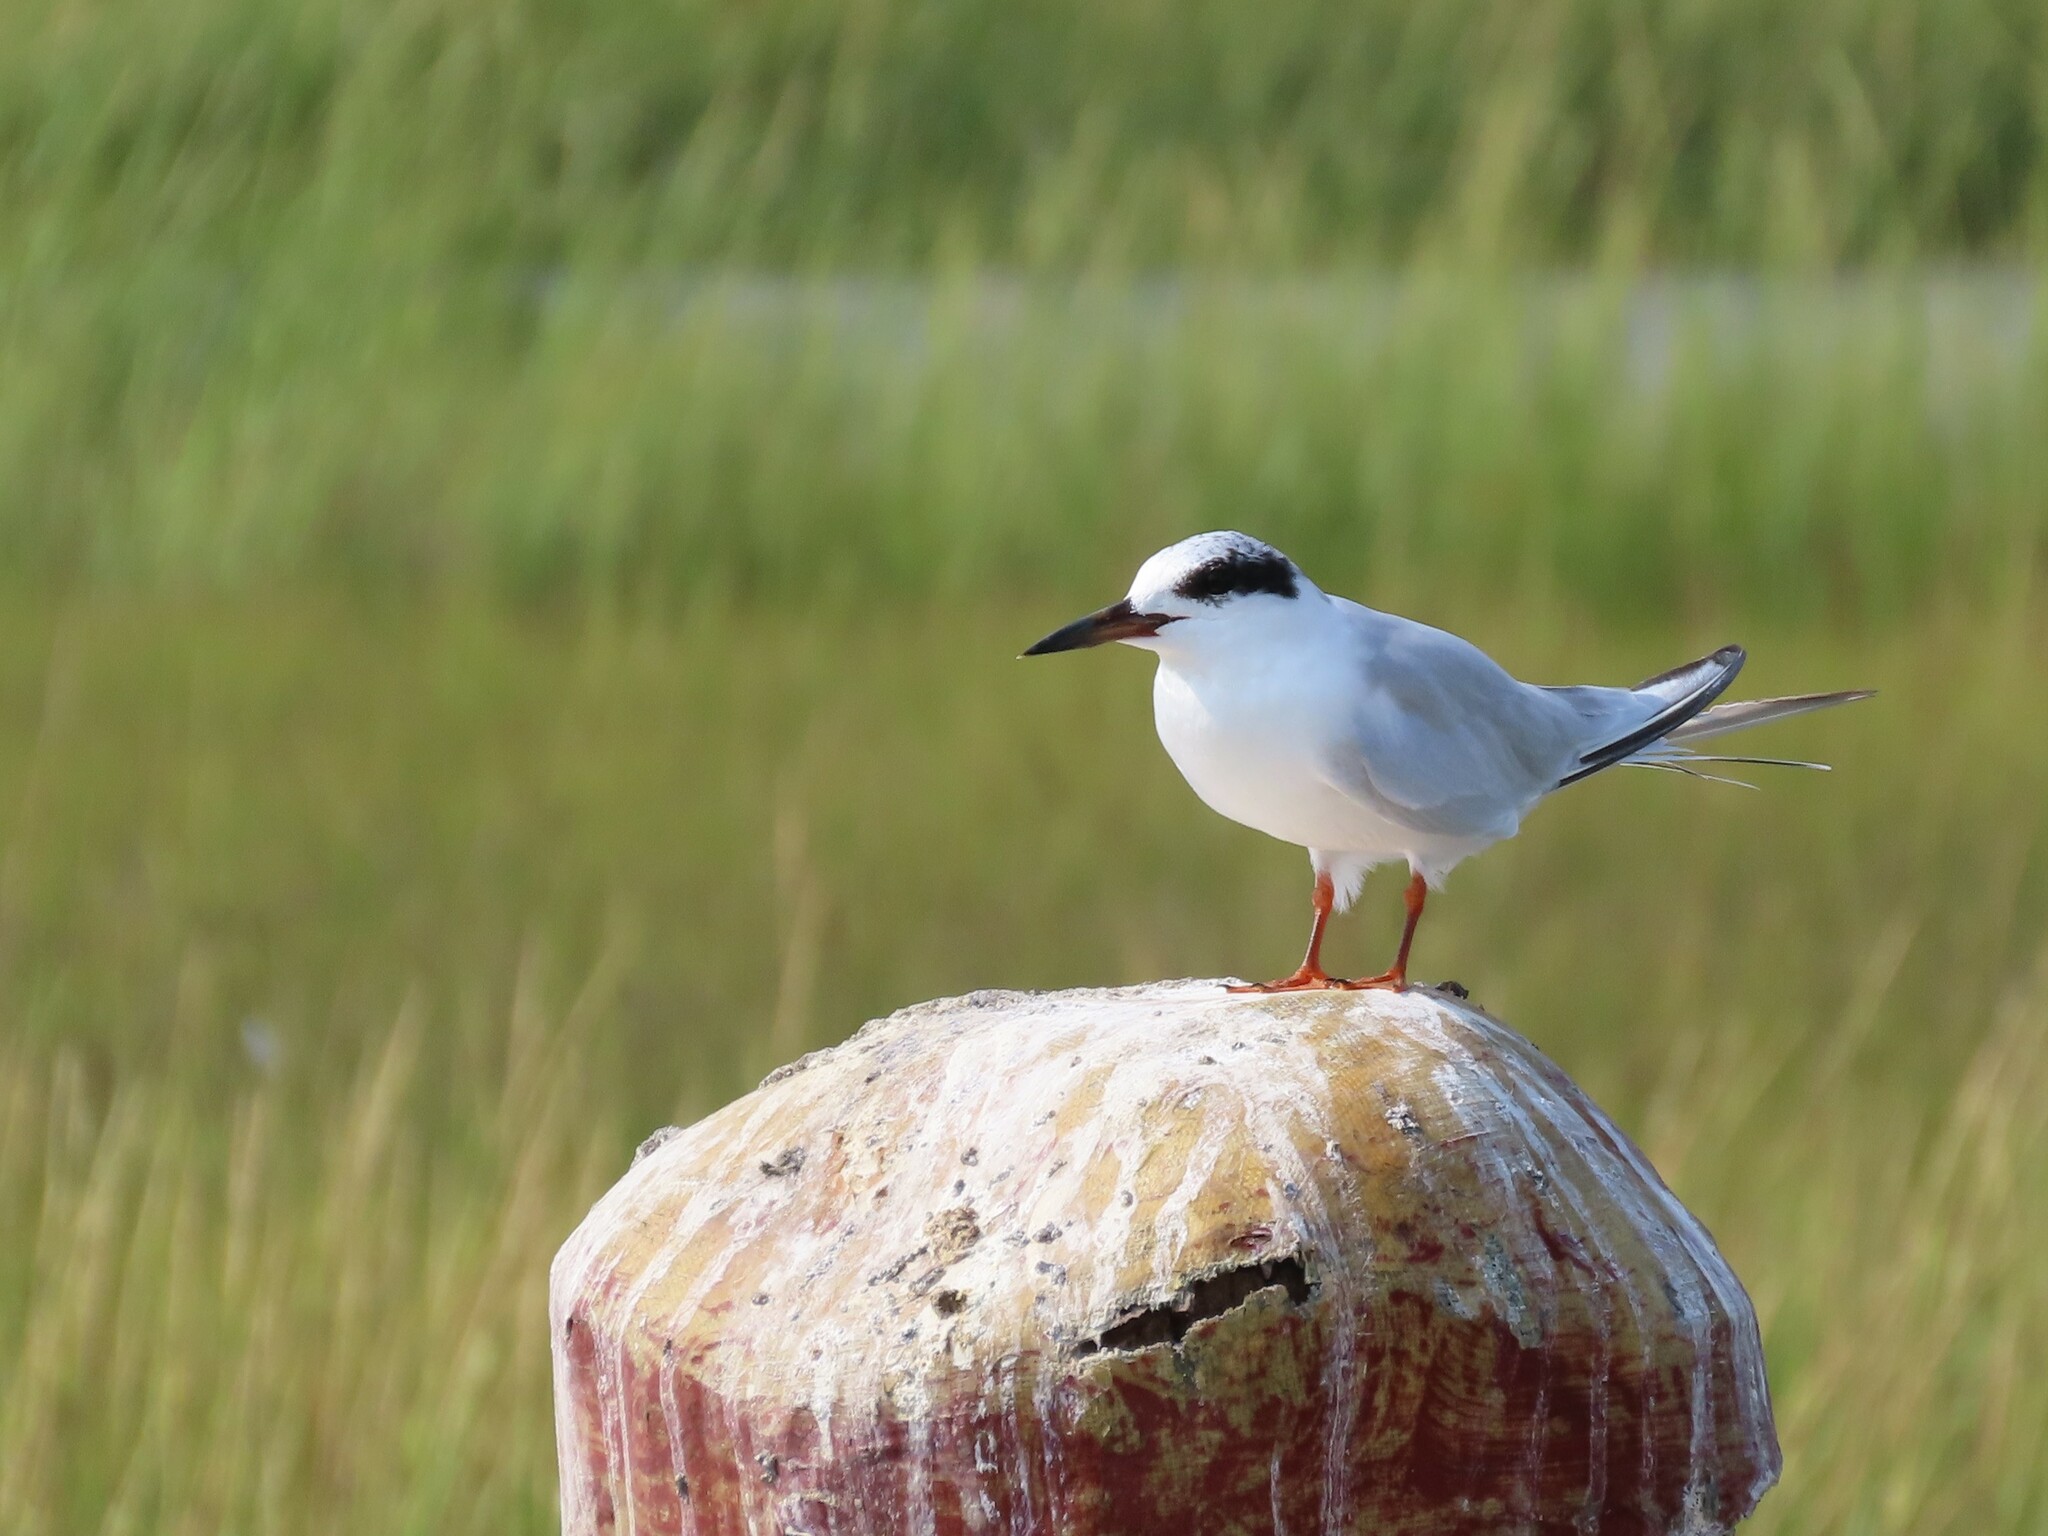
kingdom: Animalia
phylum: Chordata
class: Aves
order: Charadriiformes
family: Laridae
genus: Sterna
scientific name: Sterna forsteri
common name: Forster's tern
